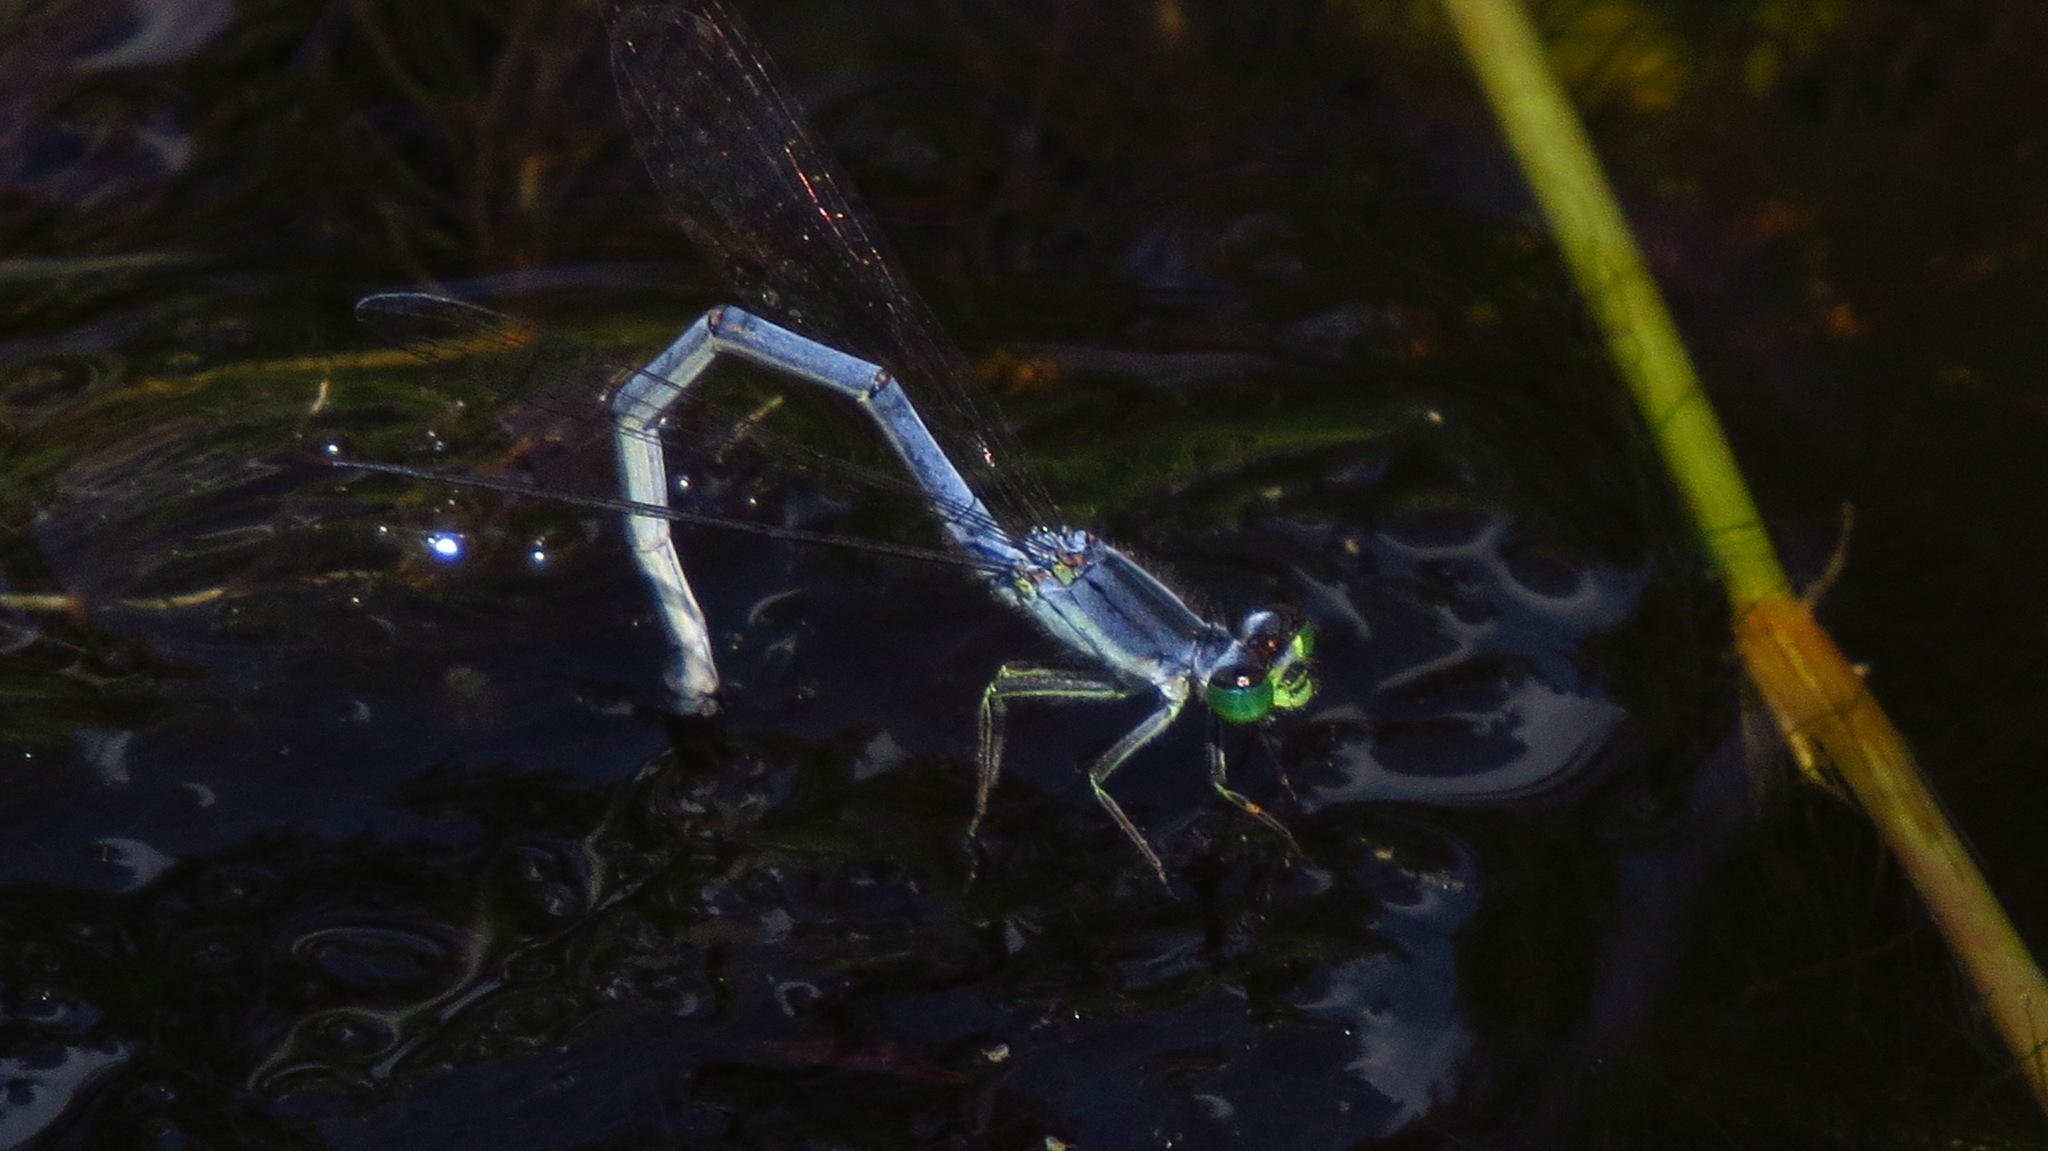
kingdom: Animalia
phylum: Arthropoda
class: Insecta
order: Odonata
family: Coenagrionidae
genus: Ischnura
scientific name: Ischnura verticalis
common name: Eastern forktail
